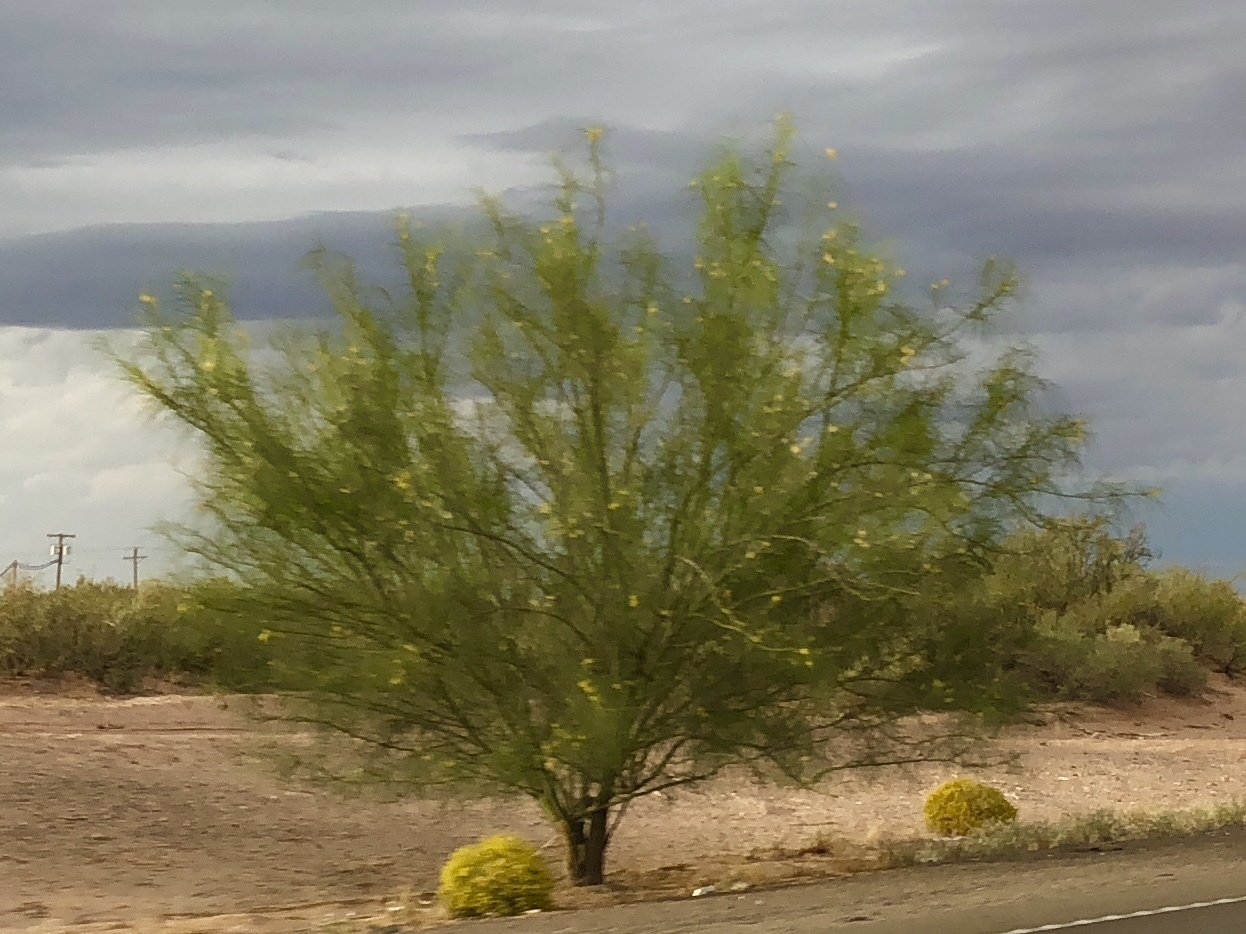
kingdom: Plantae
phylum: Tracheophyta
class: Magnoliopsida
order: Fabales
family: Fabaceae
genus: Parkinsonia
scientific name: Parkinsonia aculeata
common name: Jerusalem thorn
